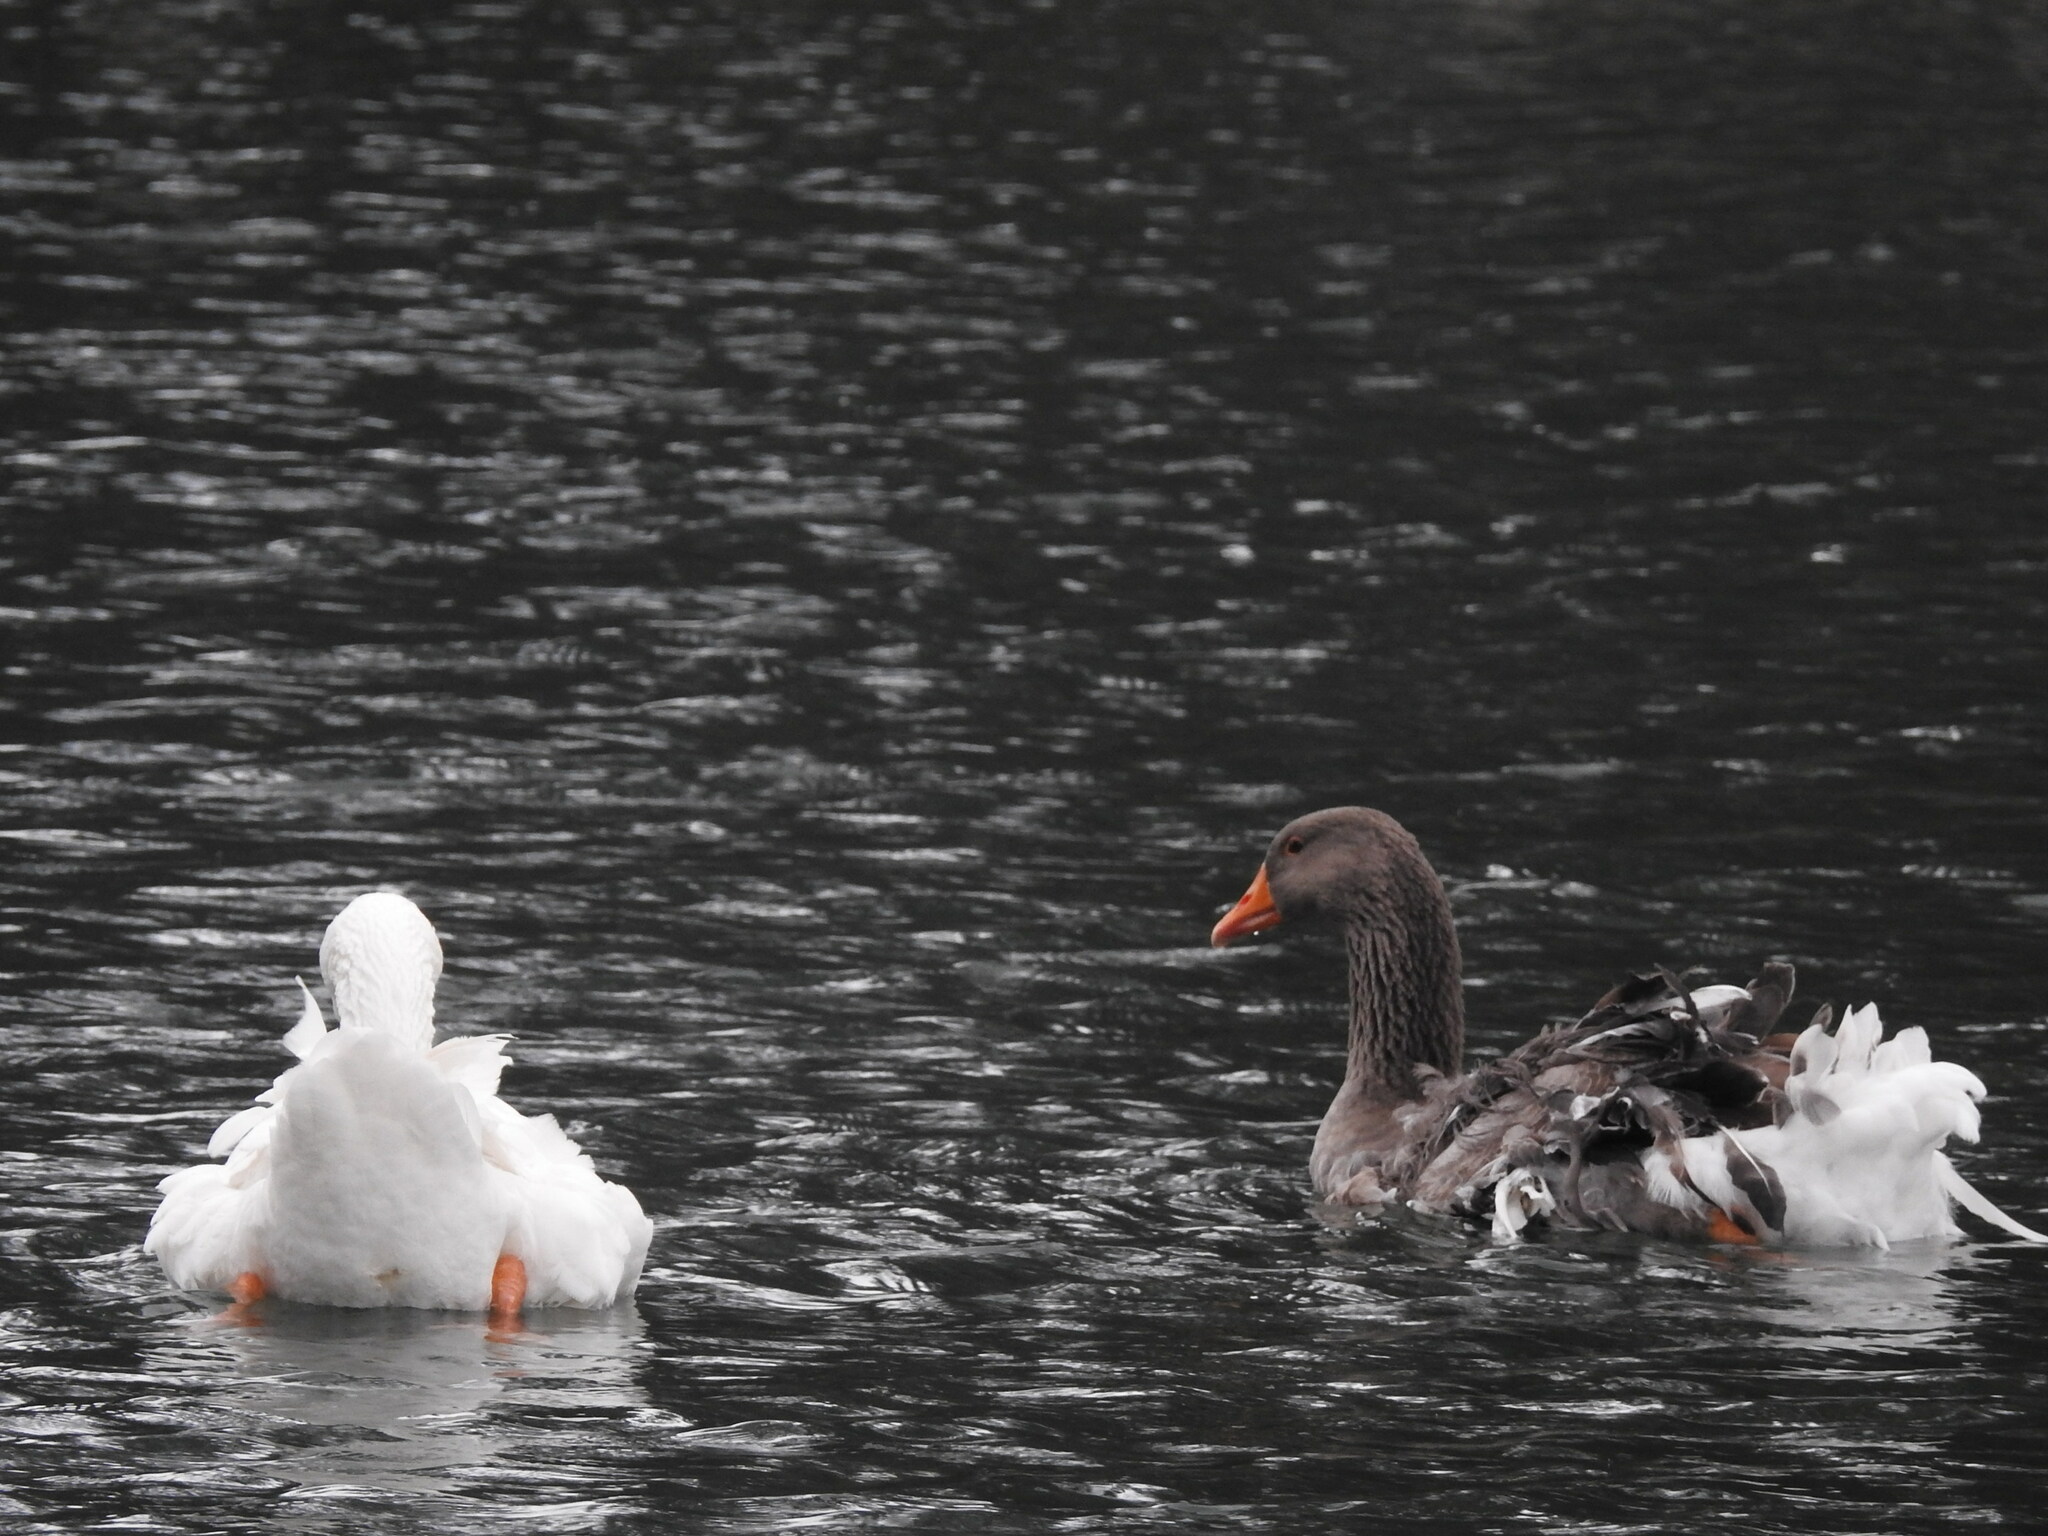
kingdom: Animalia
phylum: Chordata
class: Aves
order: Anseriformes
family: Anatidae
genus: Anser
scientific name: Anser anser
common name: Greylag goose
